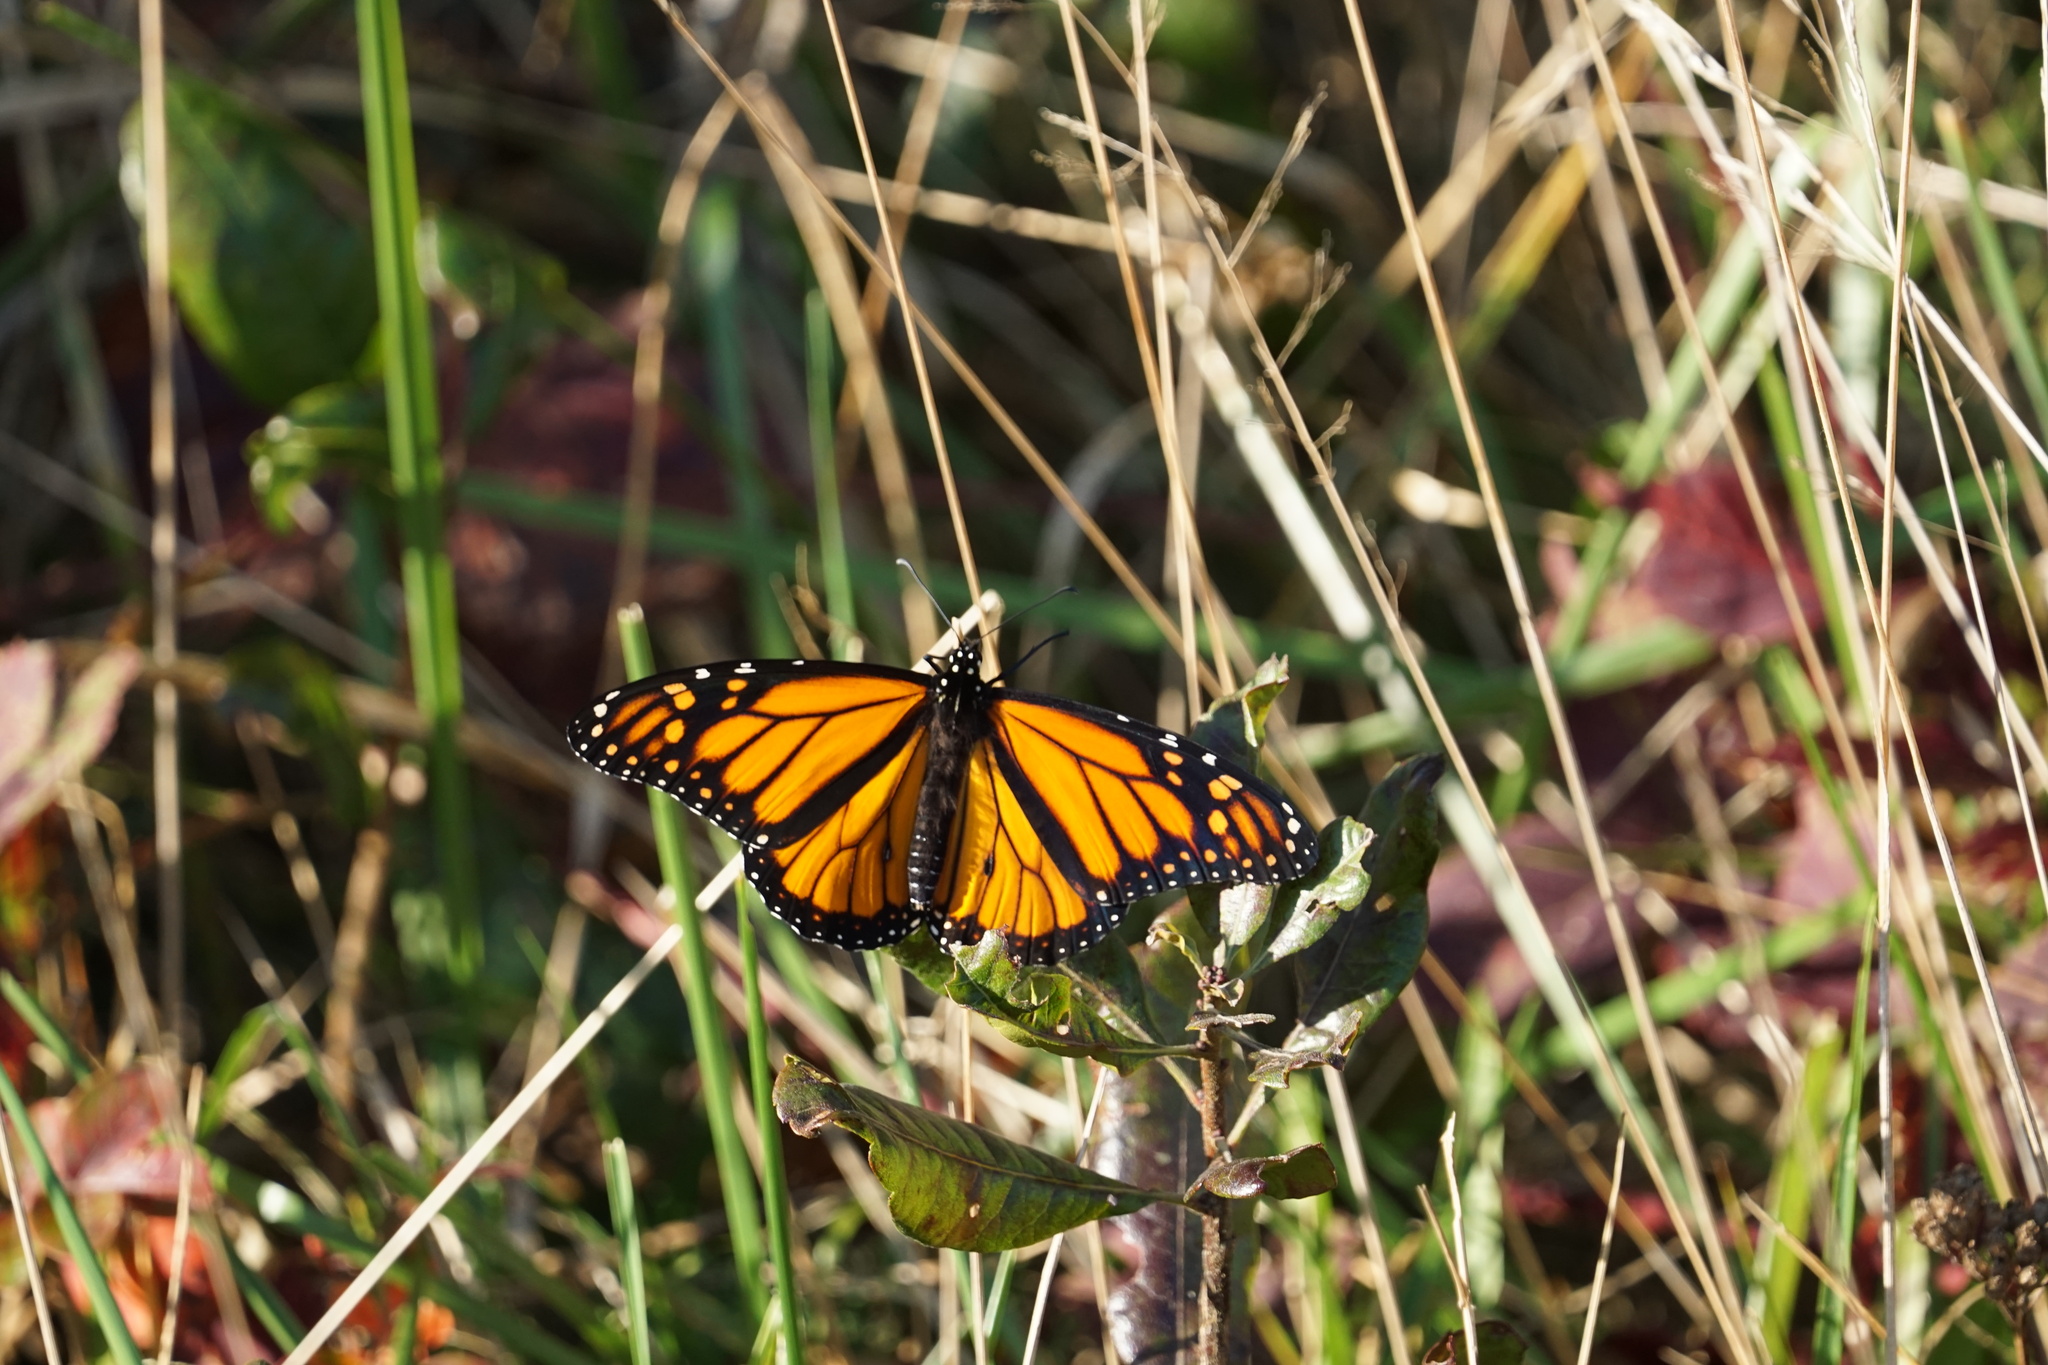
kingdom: Animalia
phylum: Arthropoda
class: Insecta
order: Lepidoptera
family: Nymphalidae
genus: Danaus
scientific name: Danaus plexippus
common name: Monarch
